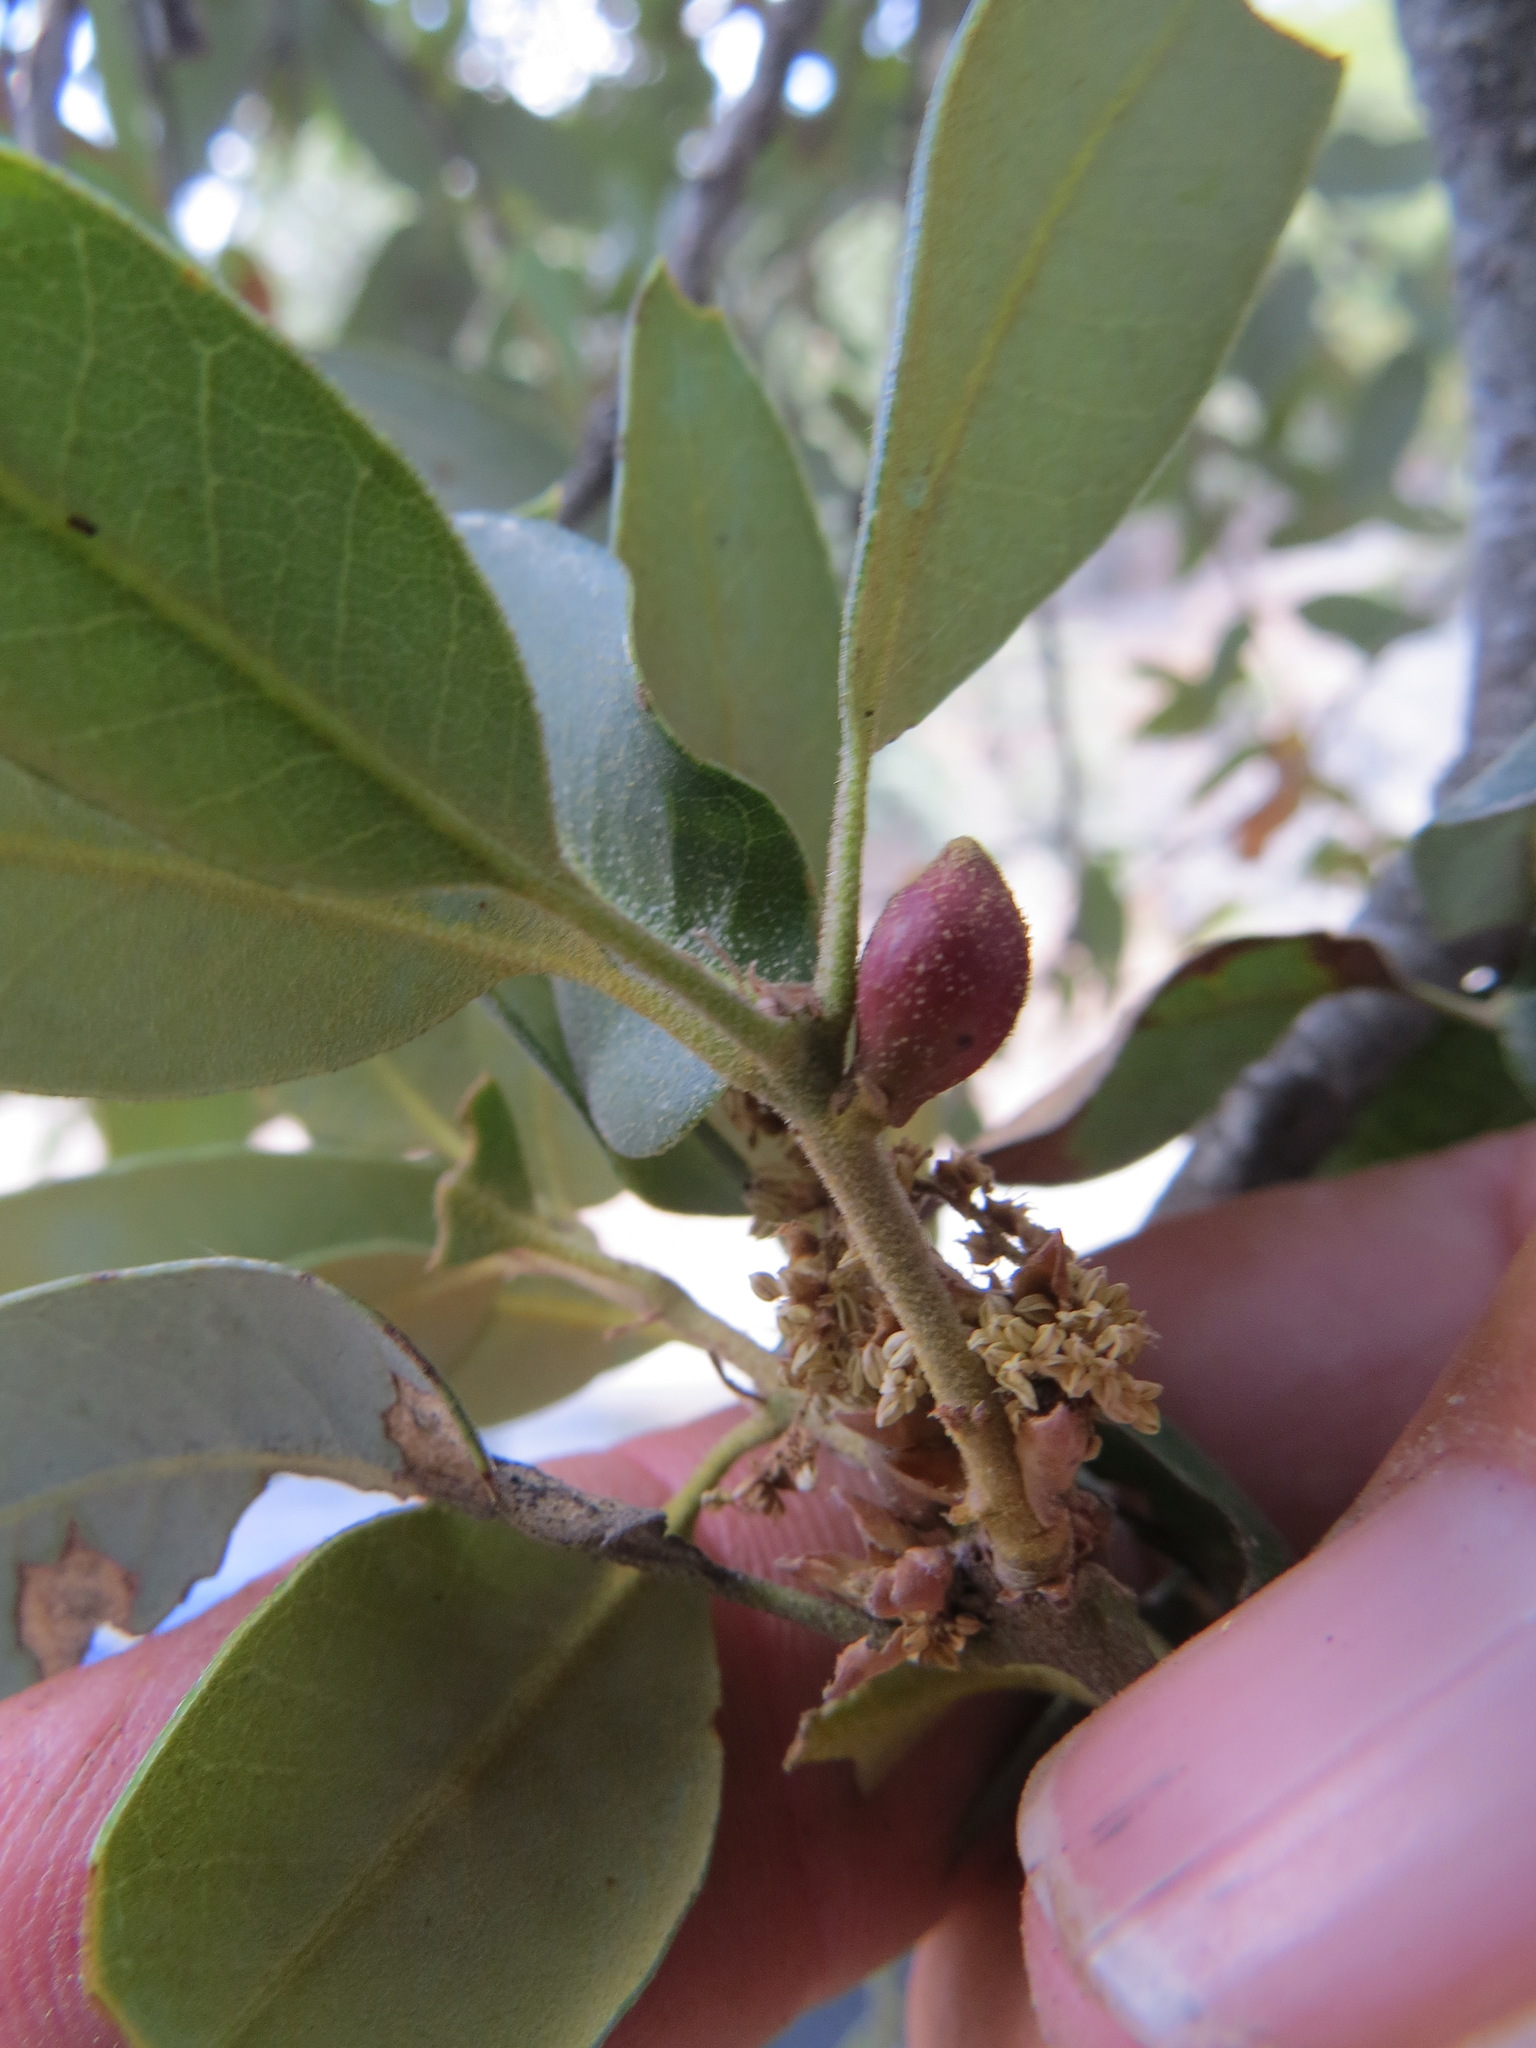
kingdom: Animalia
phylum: Arthropoda
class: Insecta
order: Hymenoptera
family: Cynipidae
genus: Heteroecus
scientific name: Heteroecus
